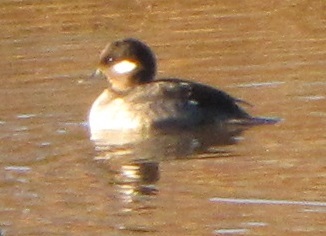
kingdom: Animalia
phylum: Chordata
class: Aves
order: Anseriformes
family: Anatidae
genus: Bucephala
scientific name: Bucephala albeola
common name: Bufflehead
